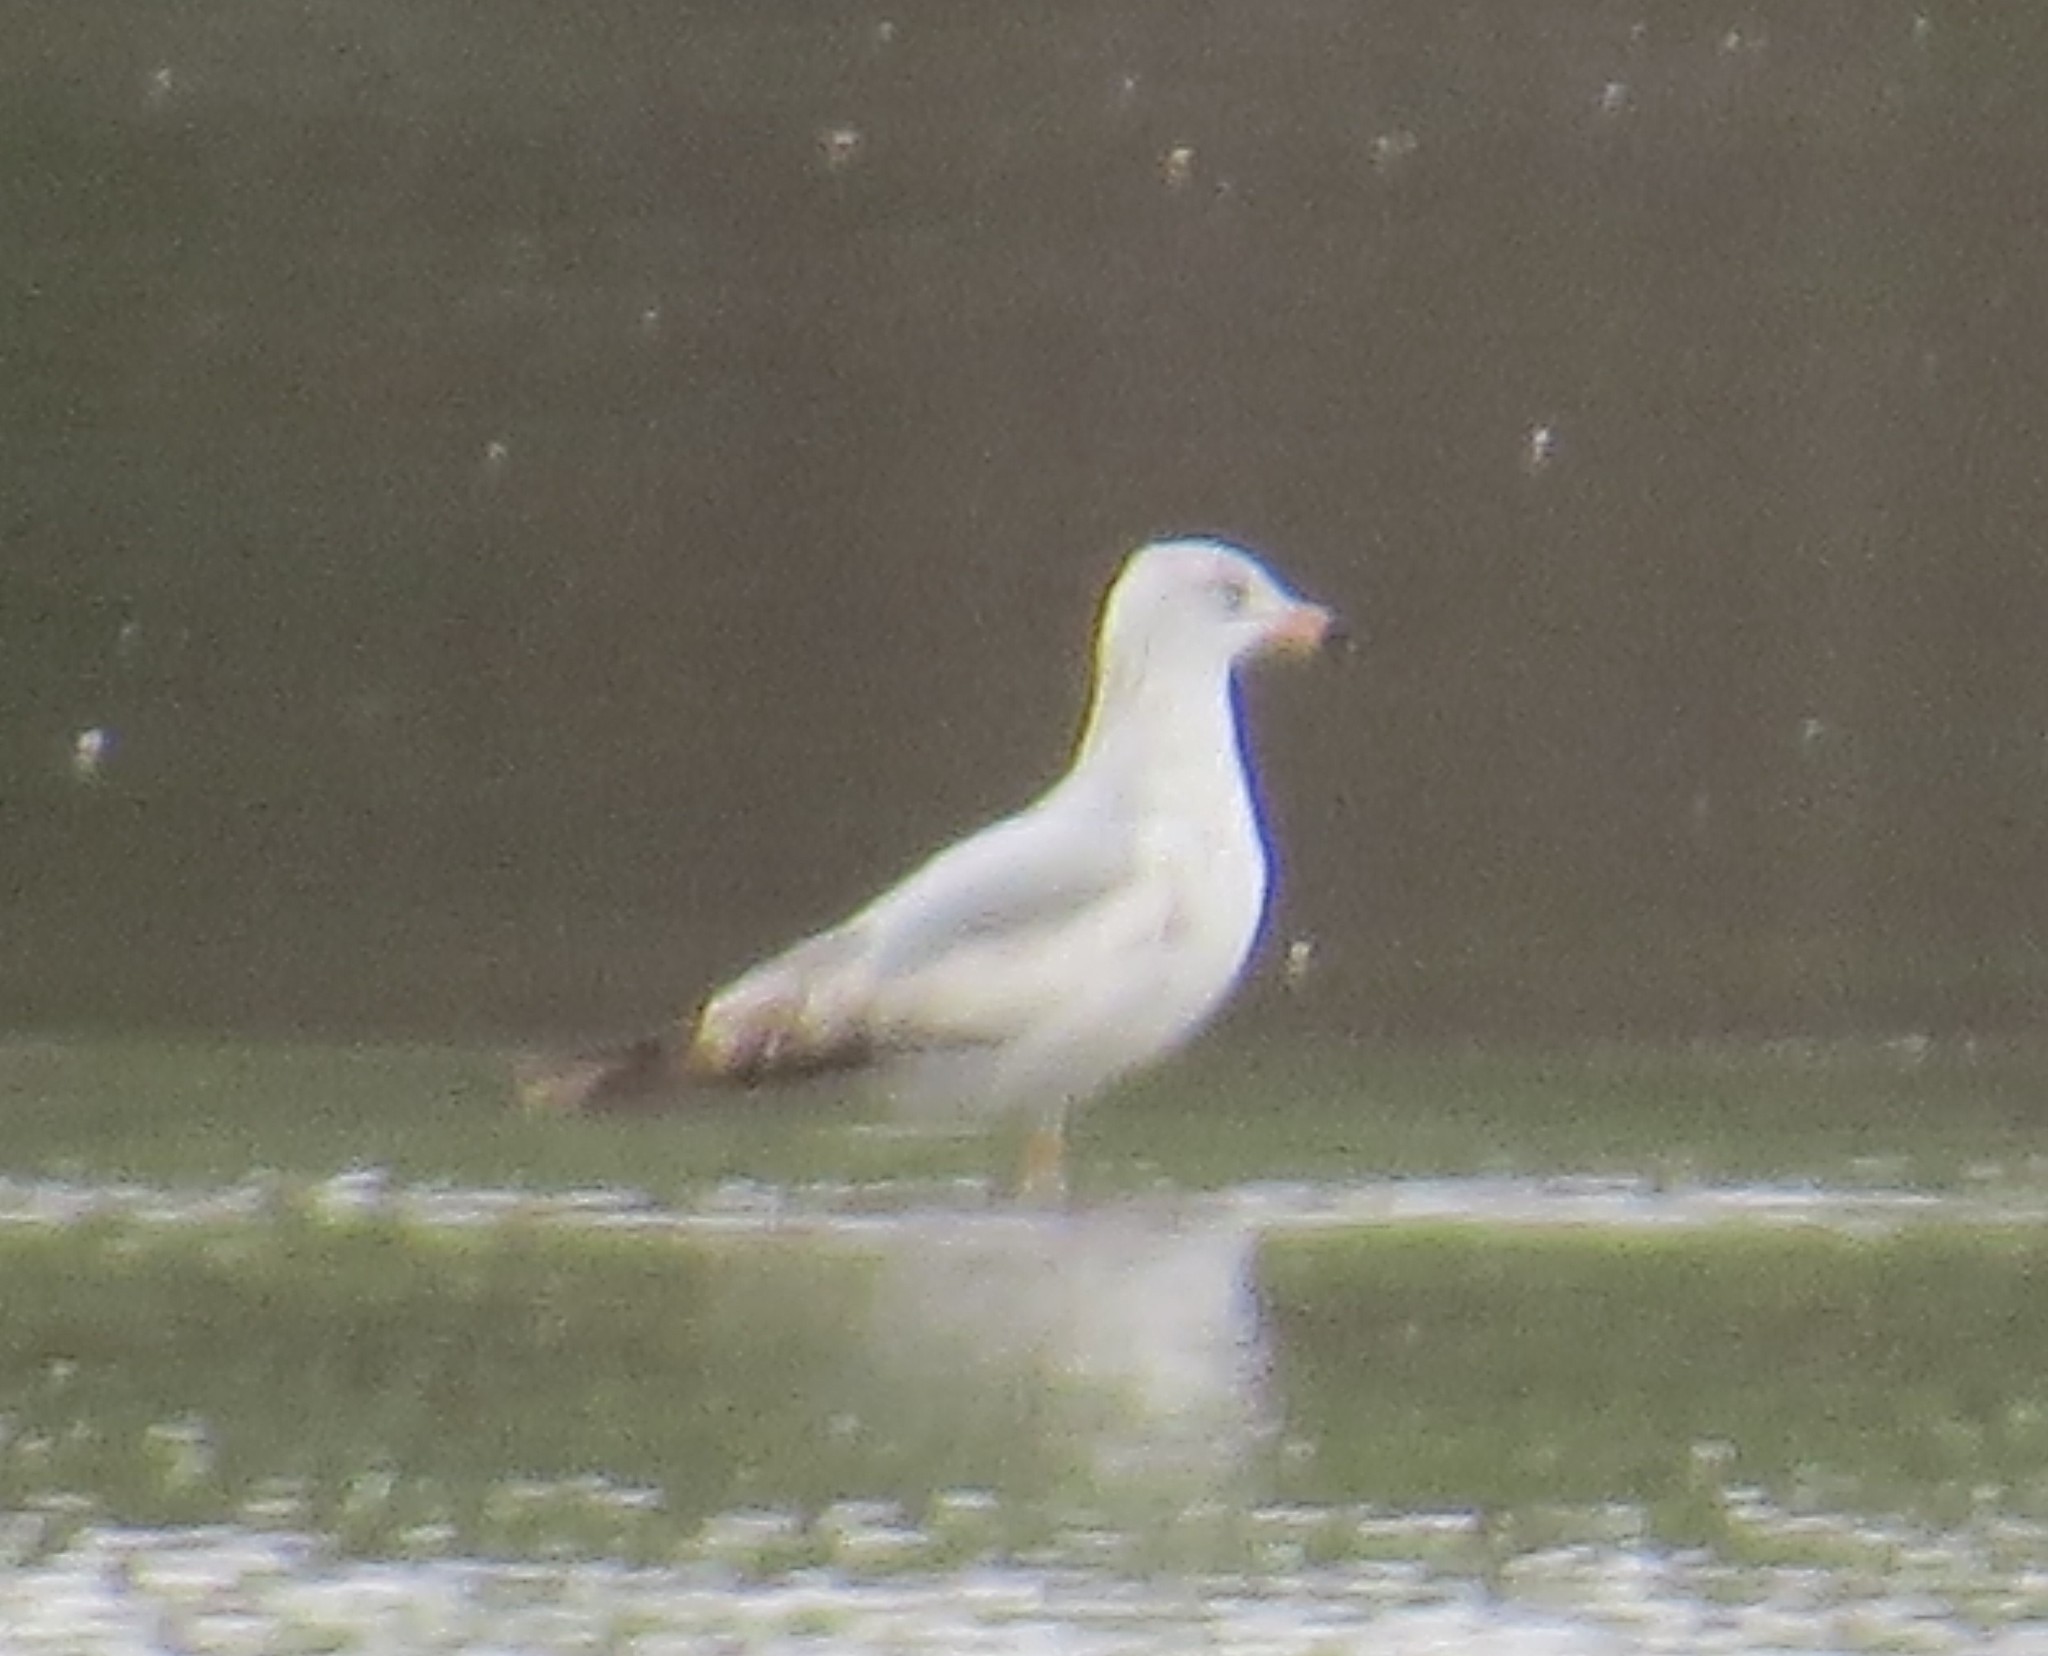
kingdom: Animalia
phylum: Chordata
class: Aves
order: Charadriiformes
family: Laridae
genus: Larus
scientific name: Larus delawarensis
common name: Ring-billed gull
